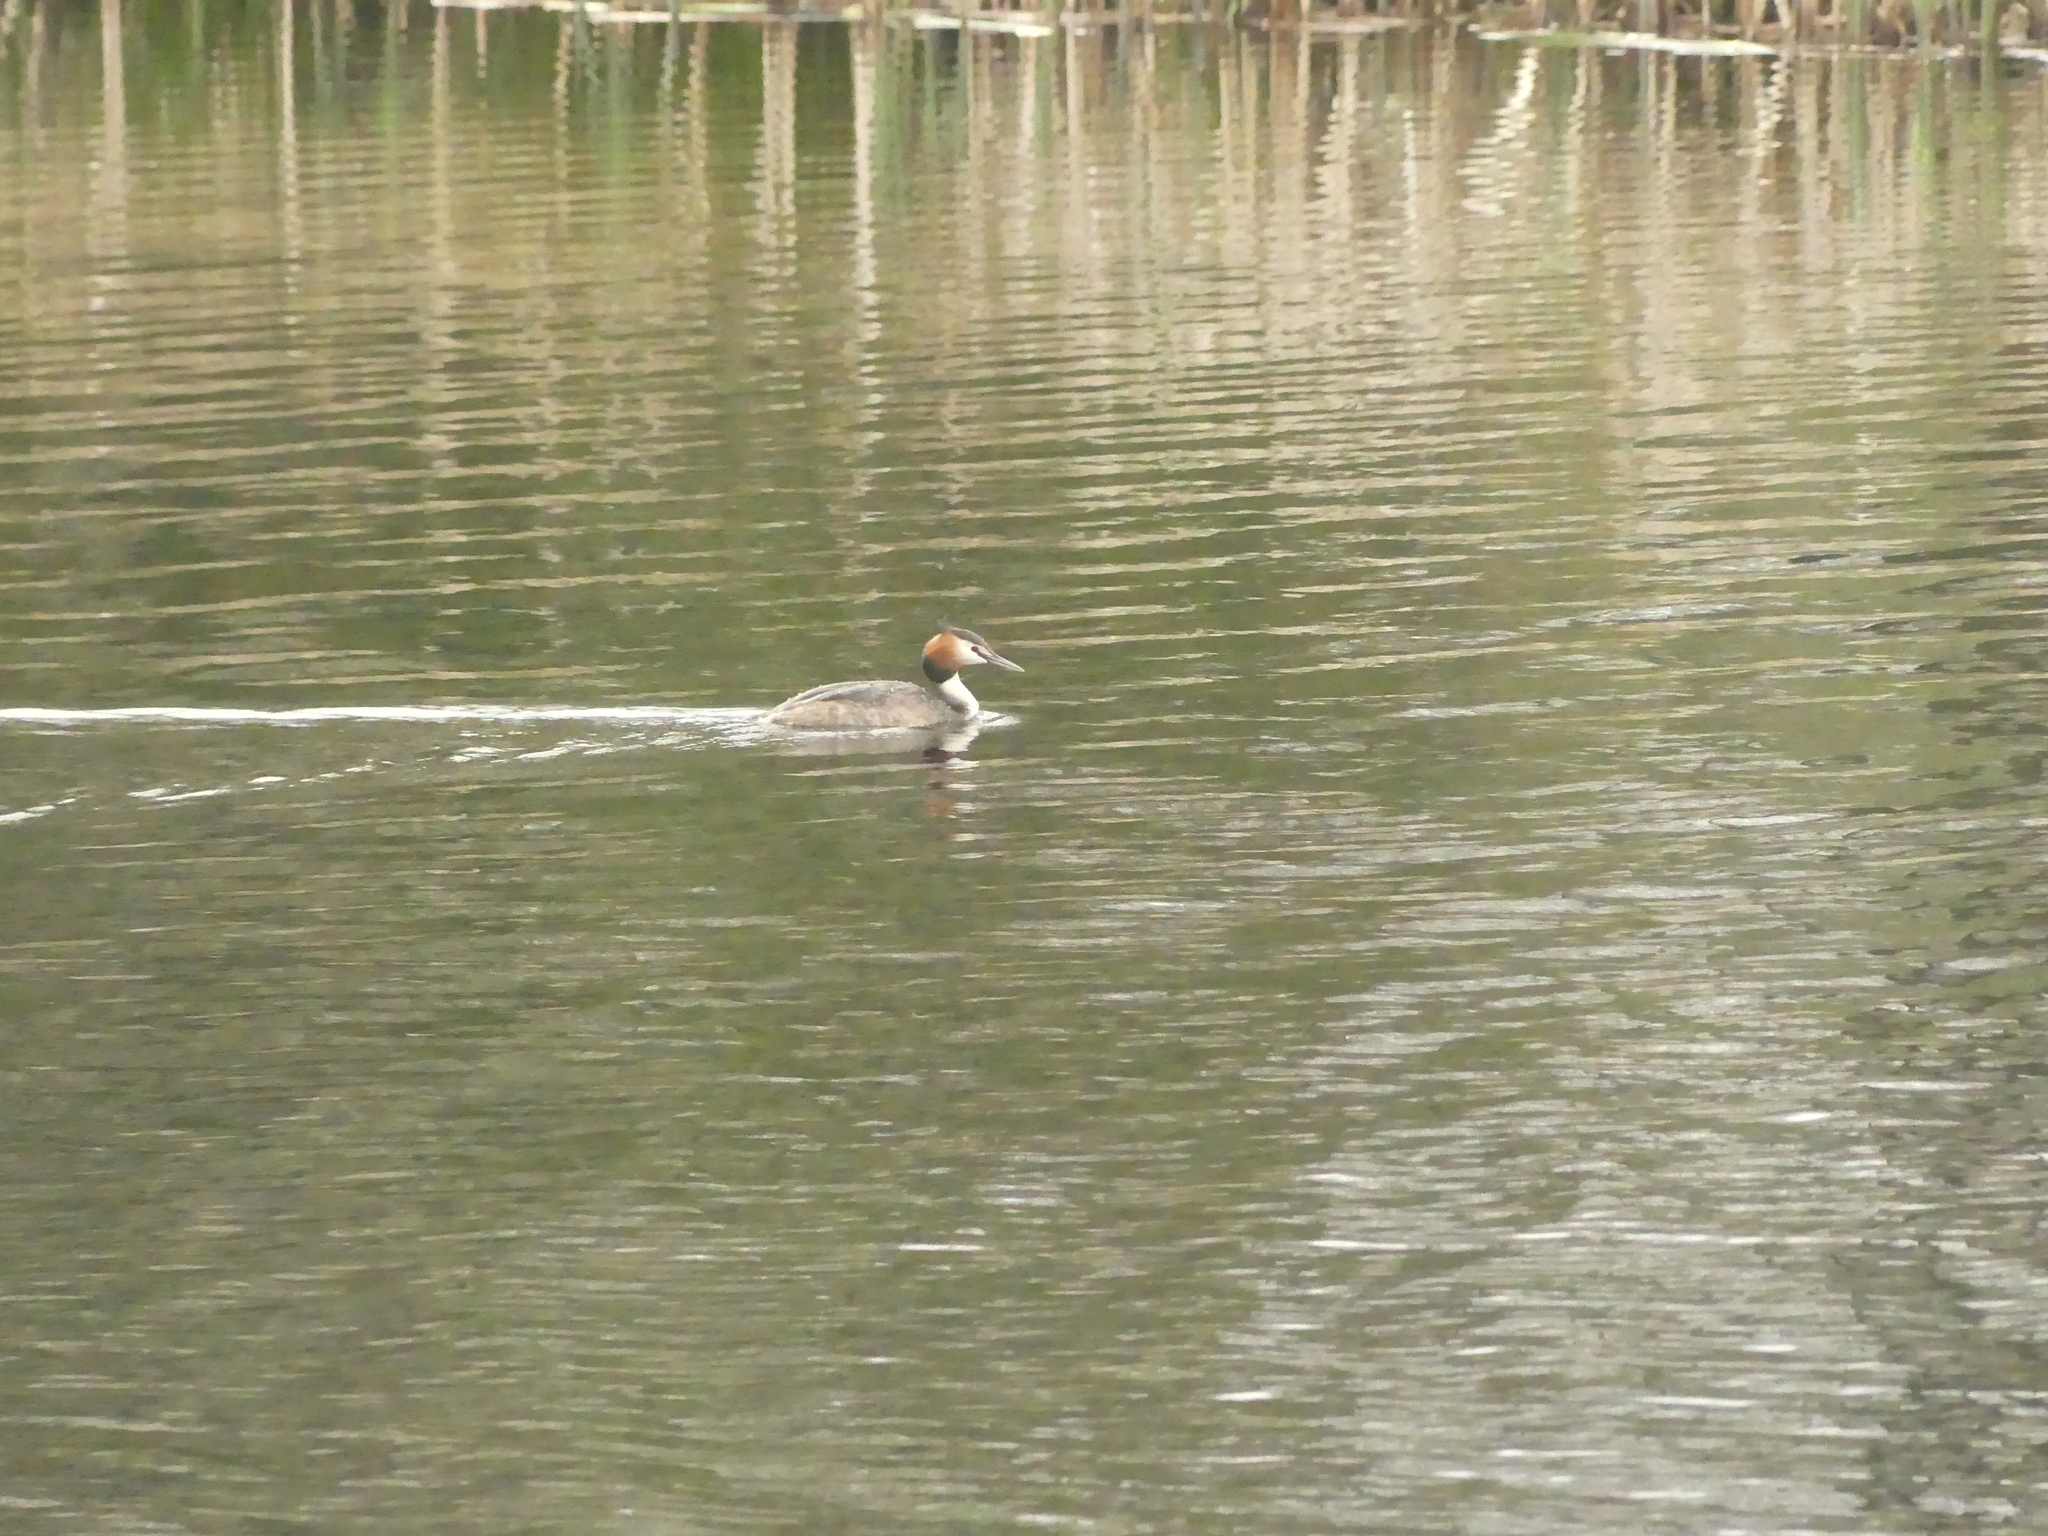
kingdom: Animalia
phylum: Chordata
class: Aves
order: Podicipediformes
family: Podicipedidae
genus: Podiceps
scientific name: Podiceps cristatus
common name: Great crested grebe
